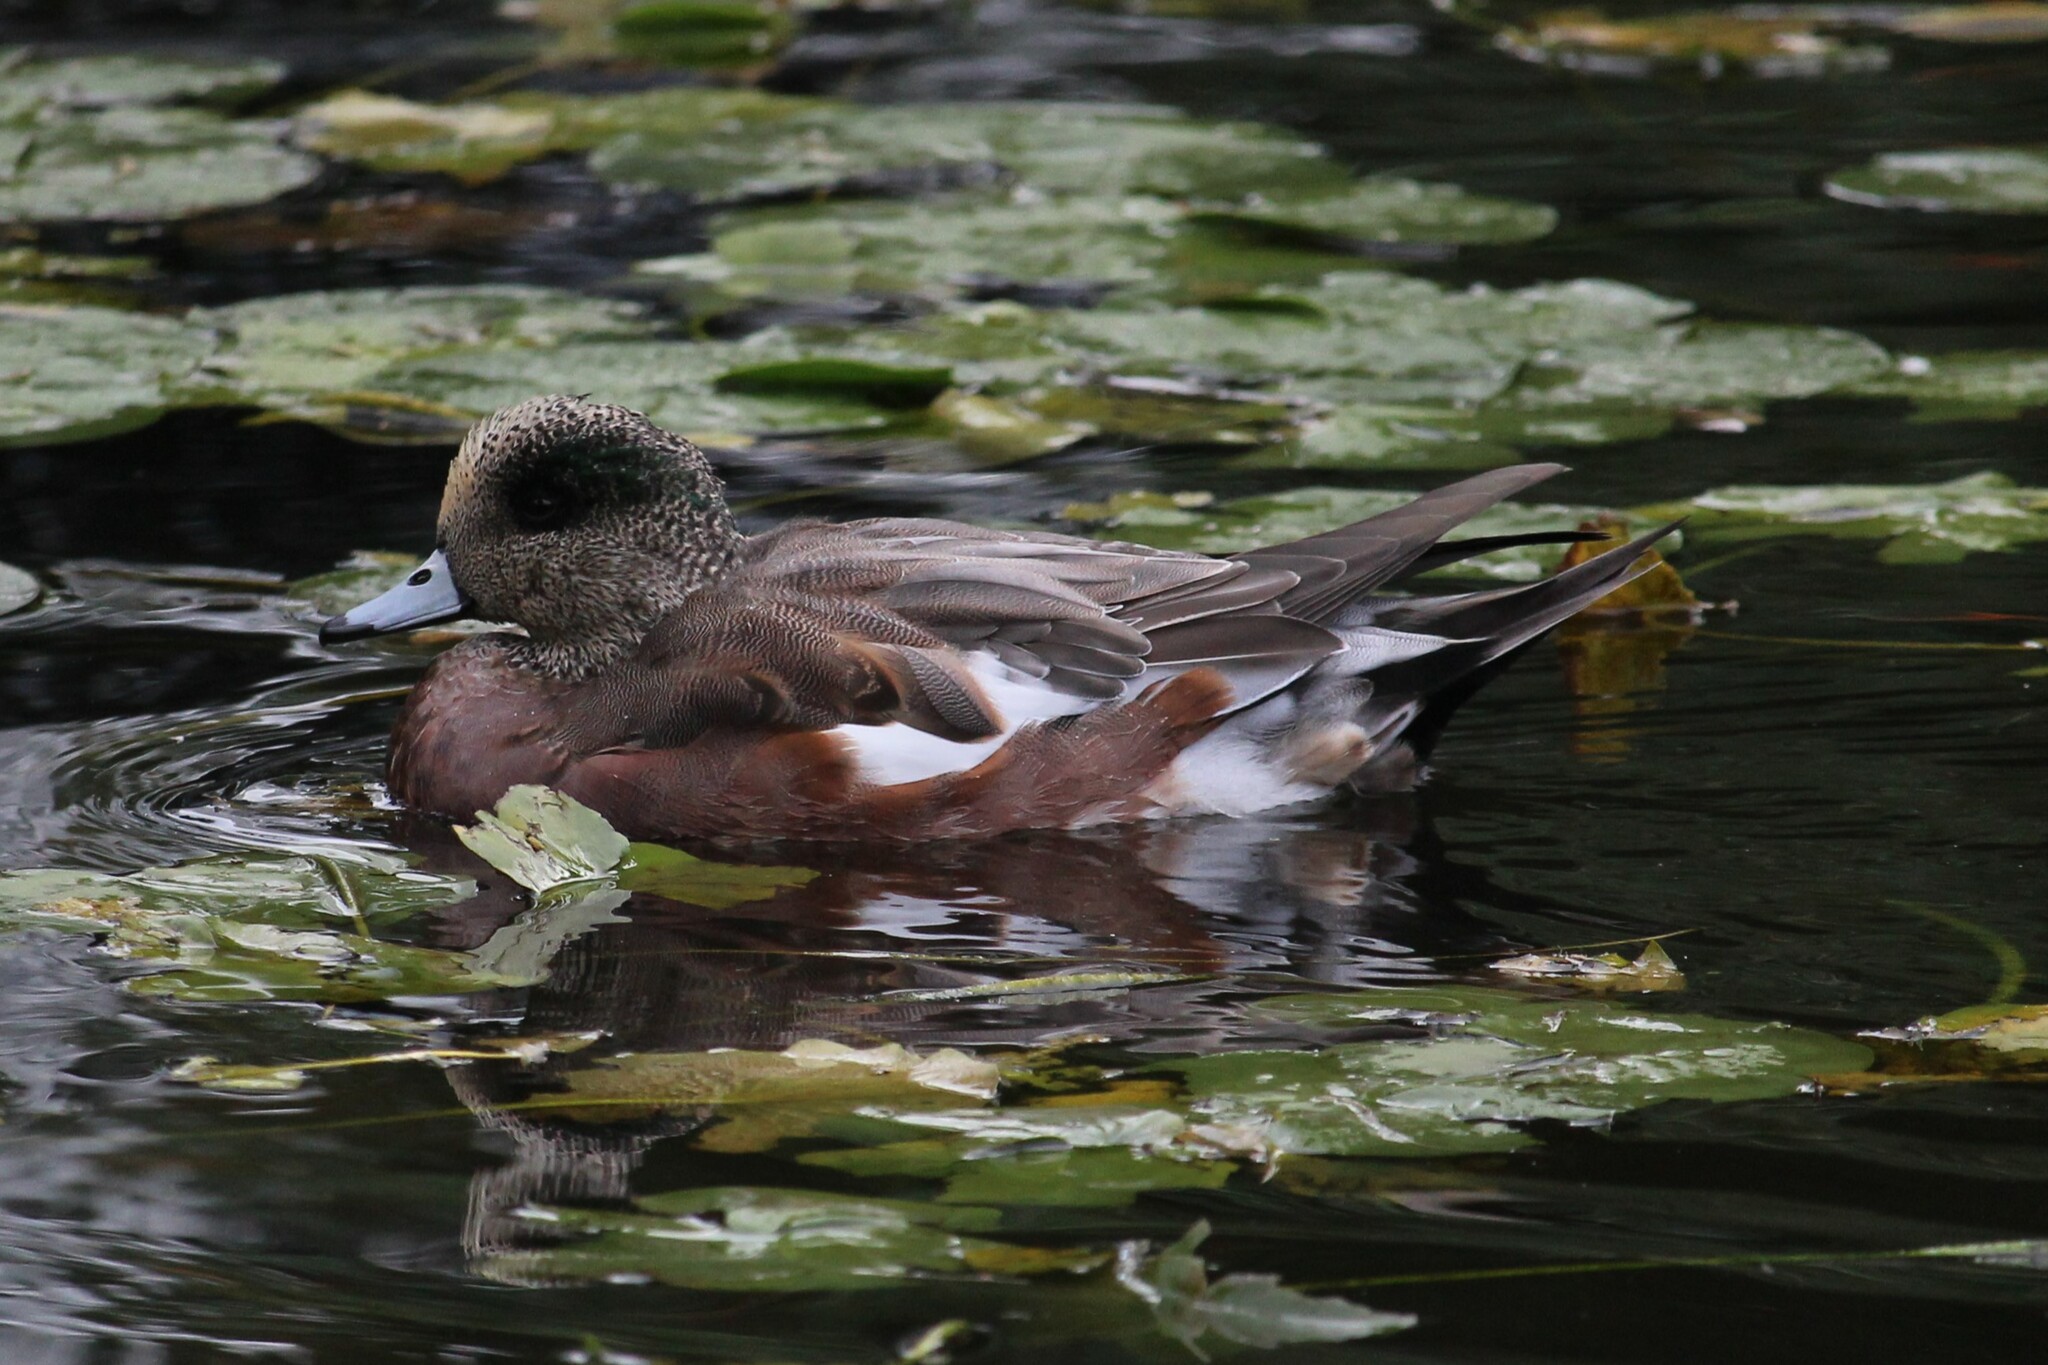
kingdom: Animalia
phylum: Chordata
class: Aves
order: Anseriformes
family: Anatidae
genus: Mareca
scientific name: Mareca americana
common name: American wigeon
